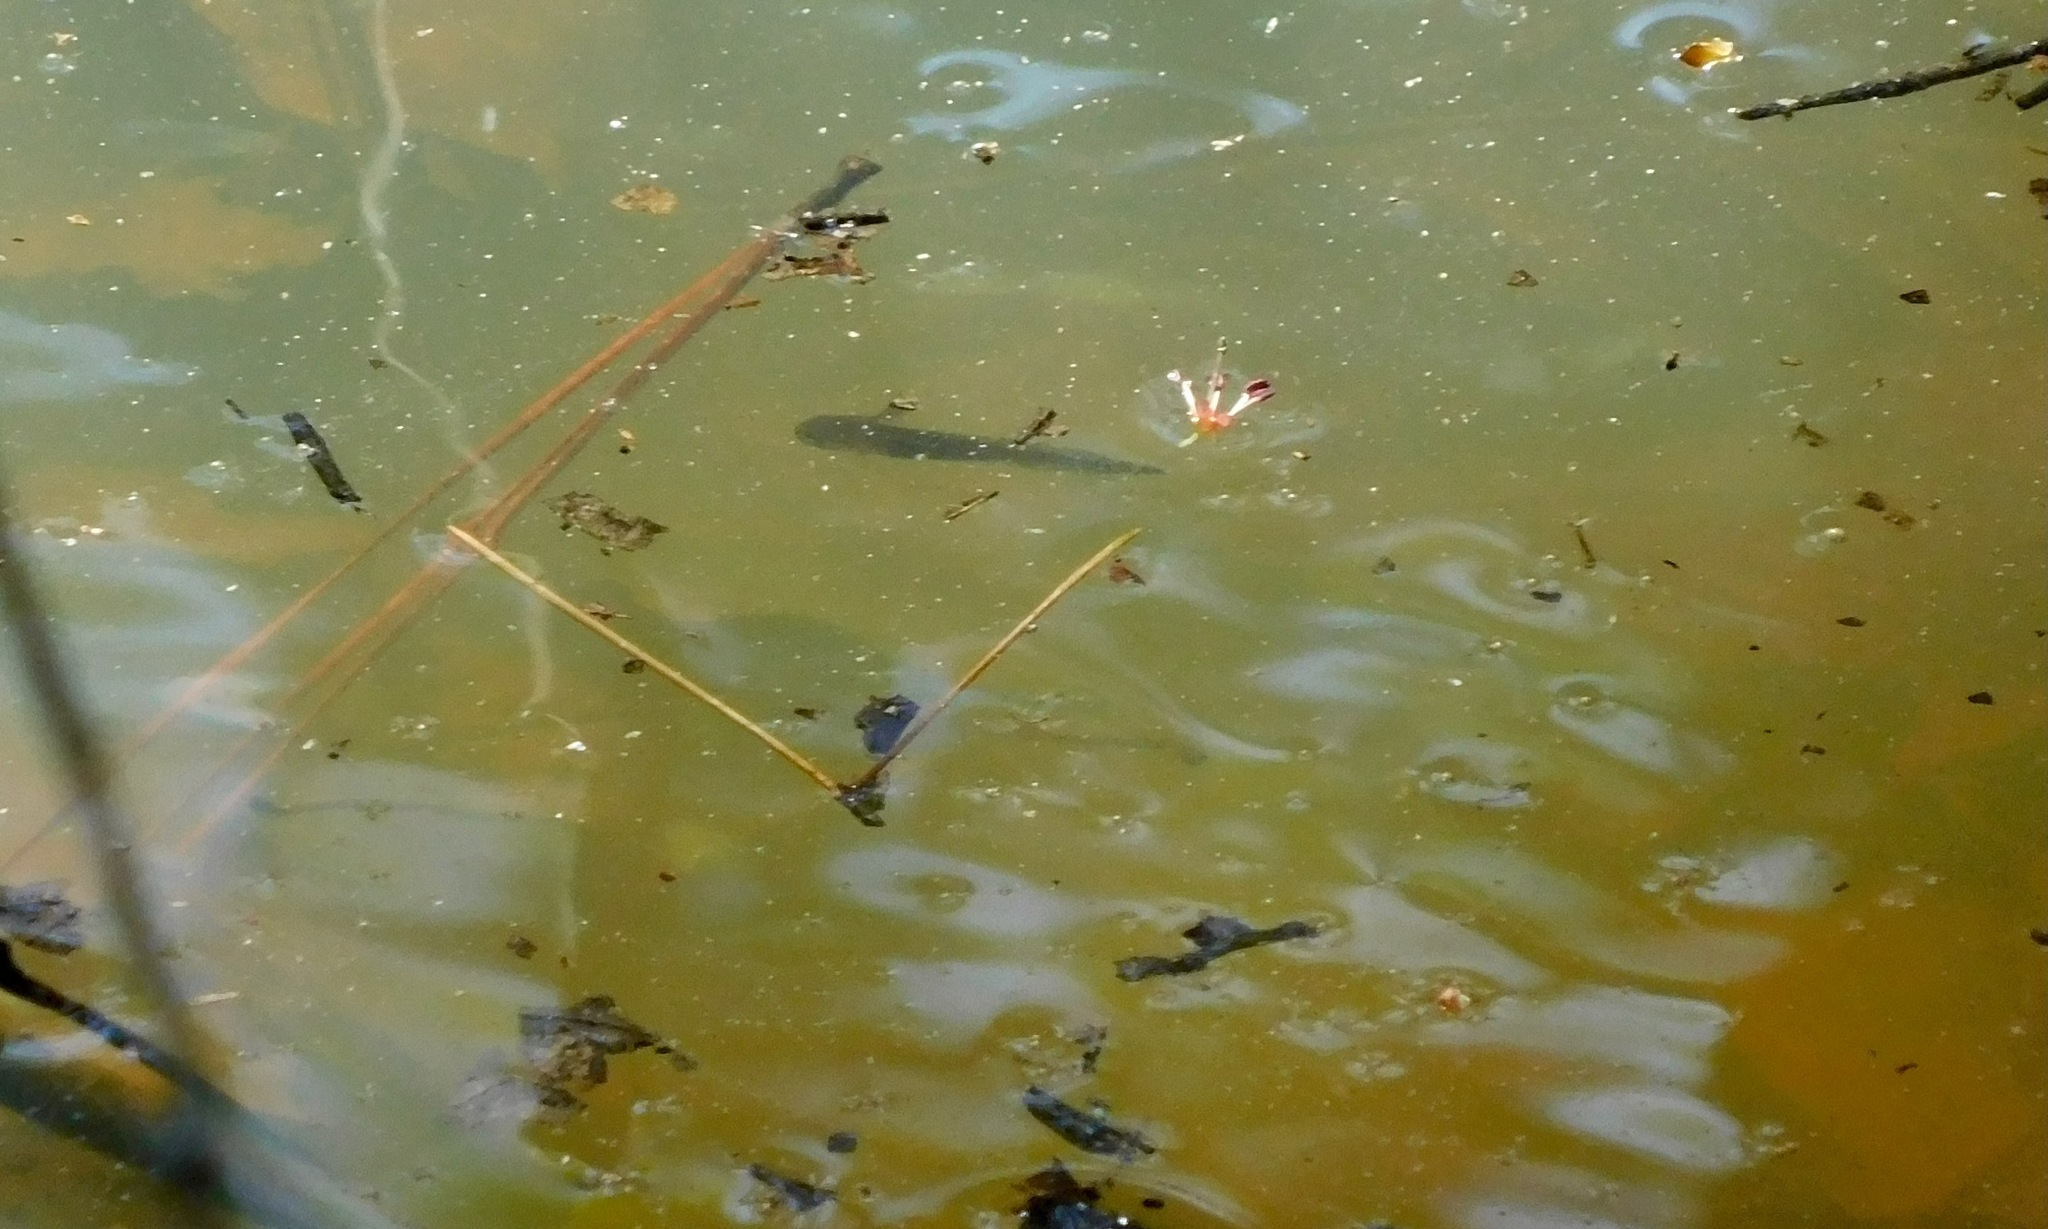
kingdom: Animalia
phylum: Chordata
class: Amphibia
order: Caudata
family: Ambystomatidae
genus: Ambystoma
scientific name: Ambystoma opacum
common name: Marbled salamander
